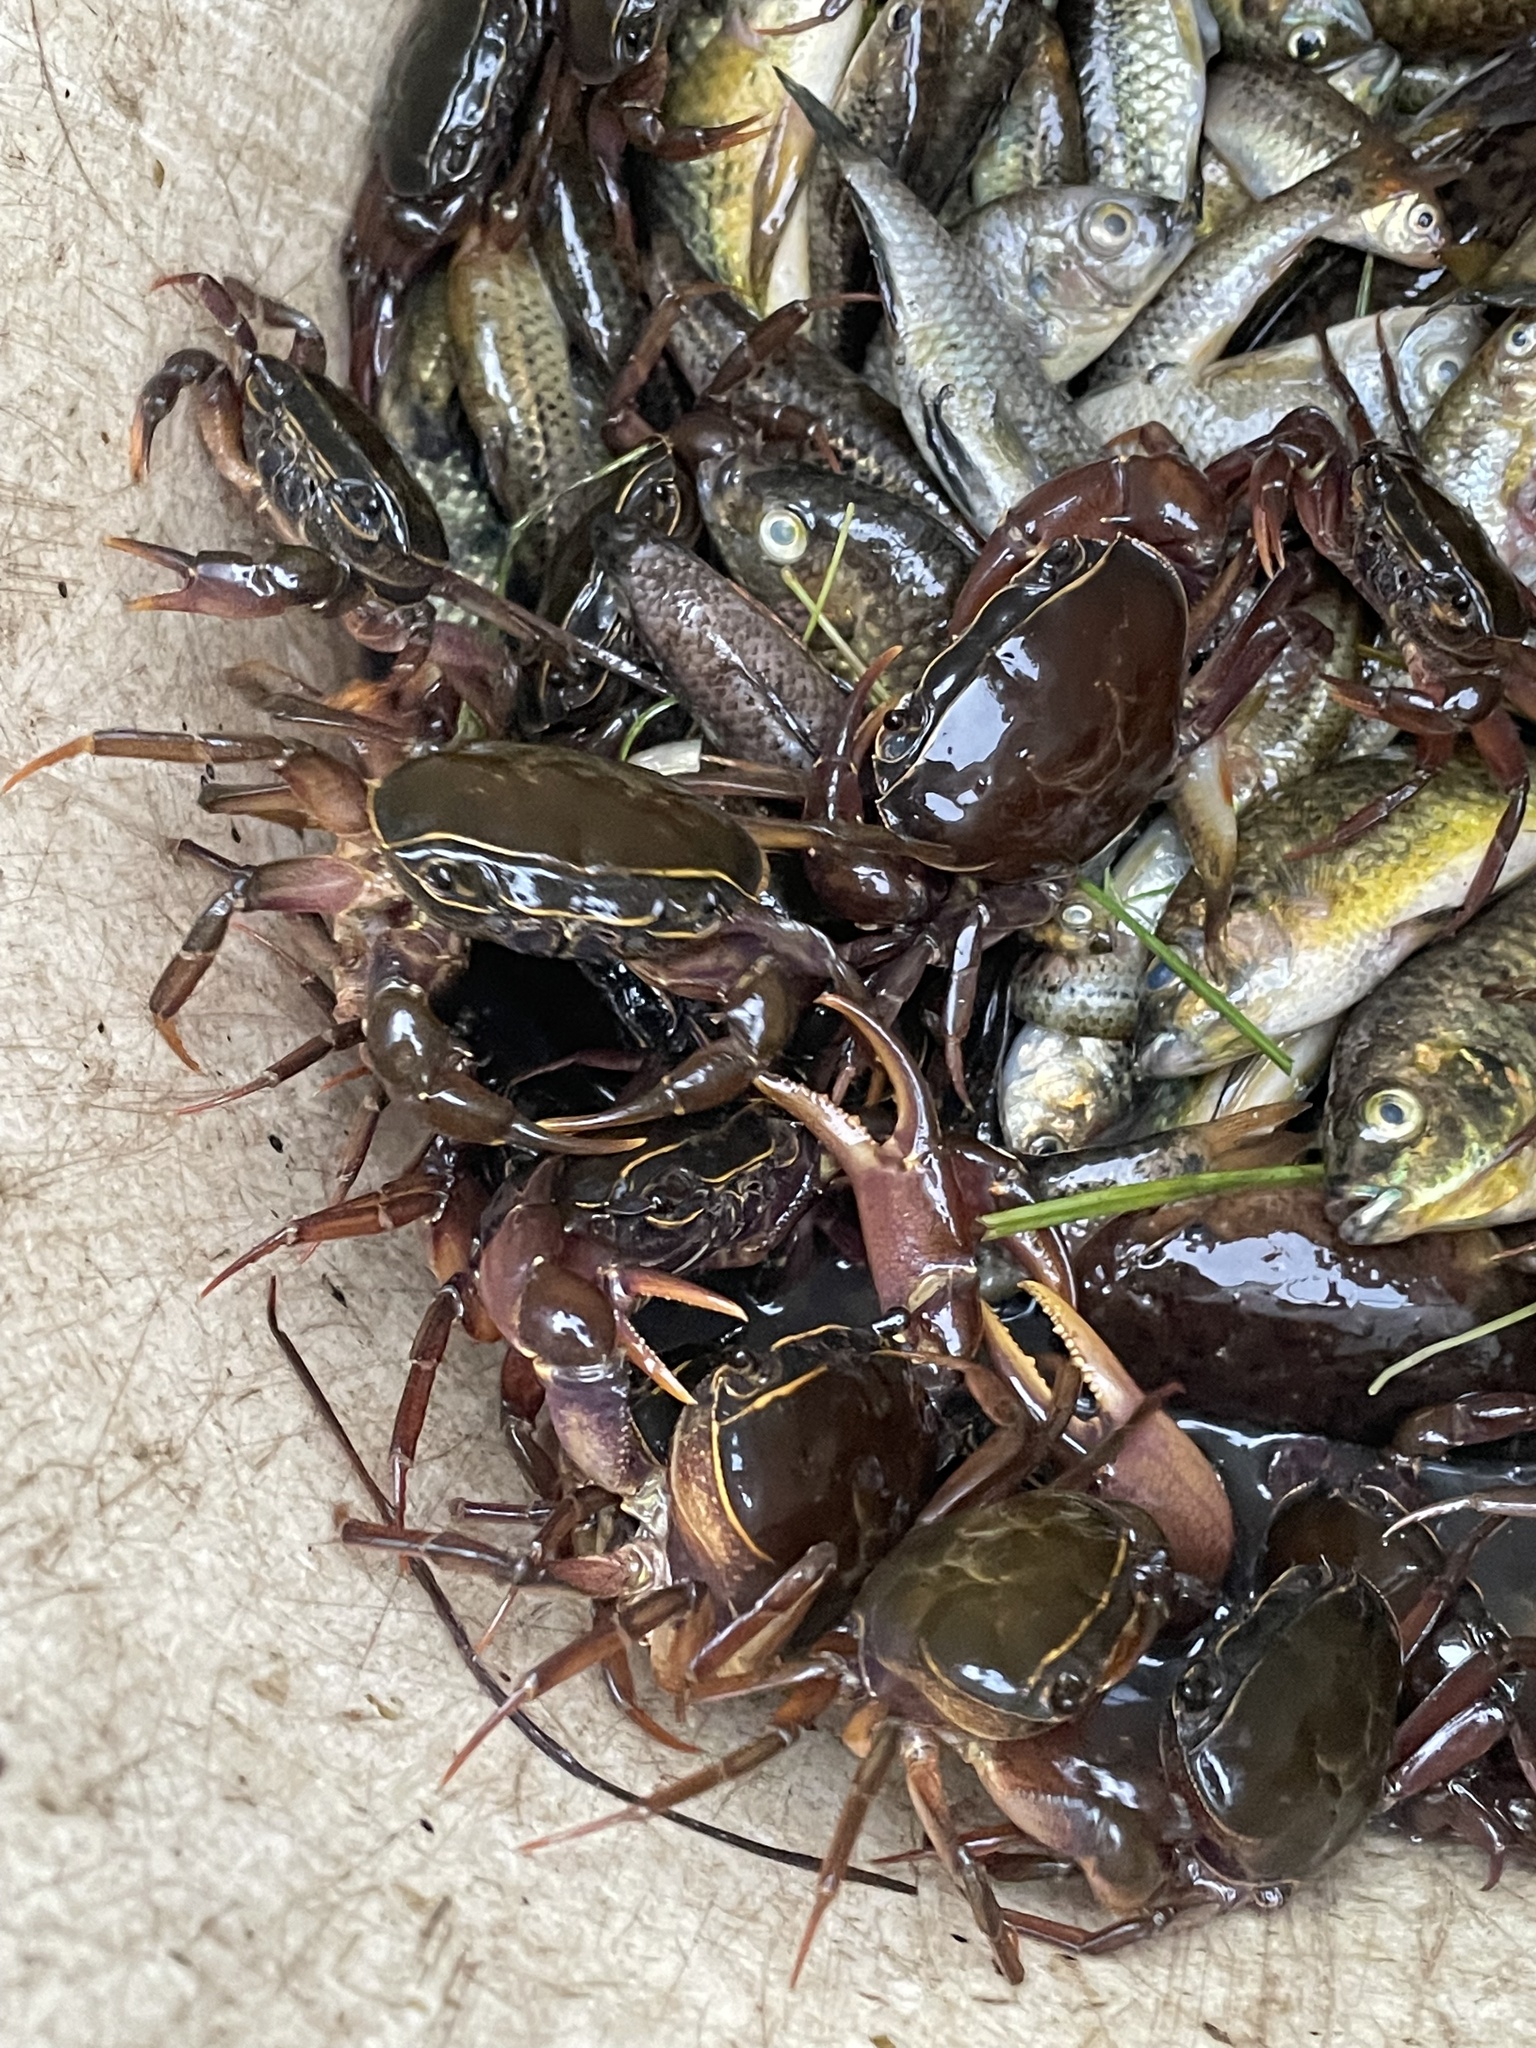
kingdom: Animalia
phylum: Arthropoda
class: Malacostraca
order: Decapoda
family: Potamonautidae
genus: Potamonautes
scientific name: Potamonautes bayonianus
